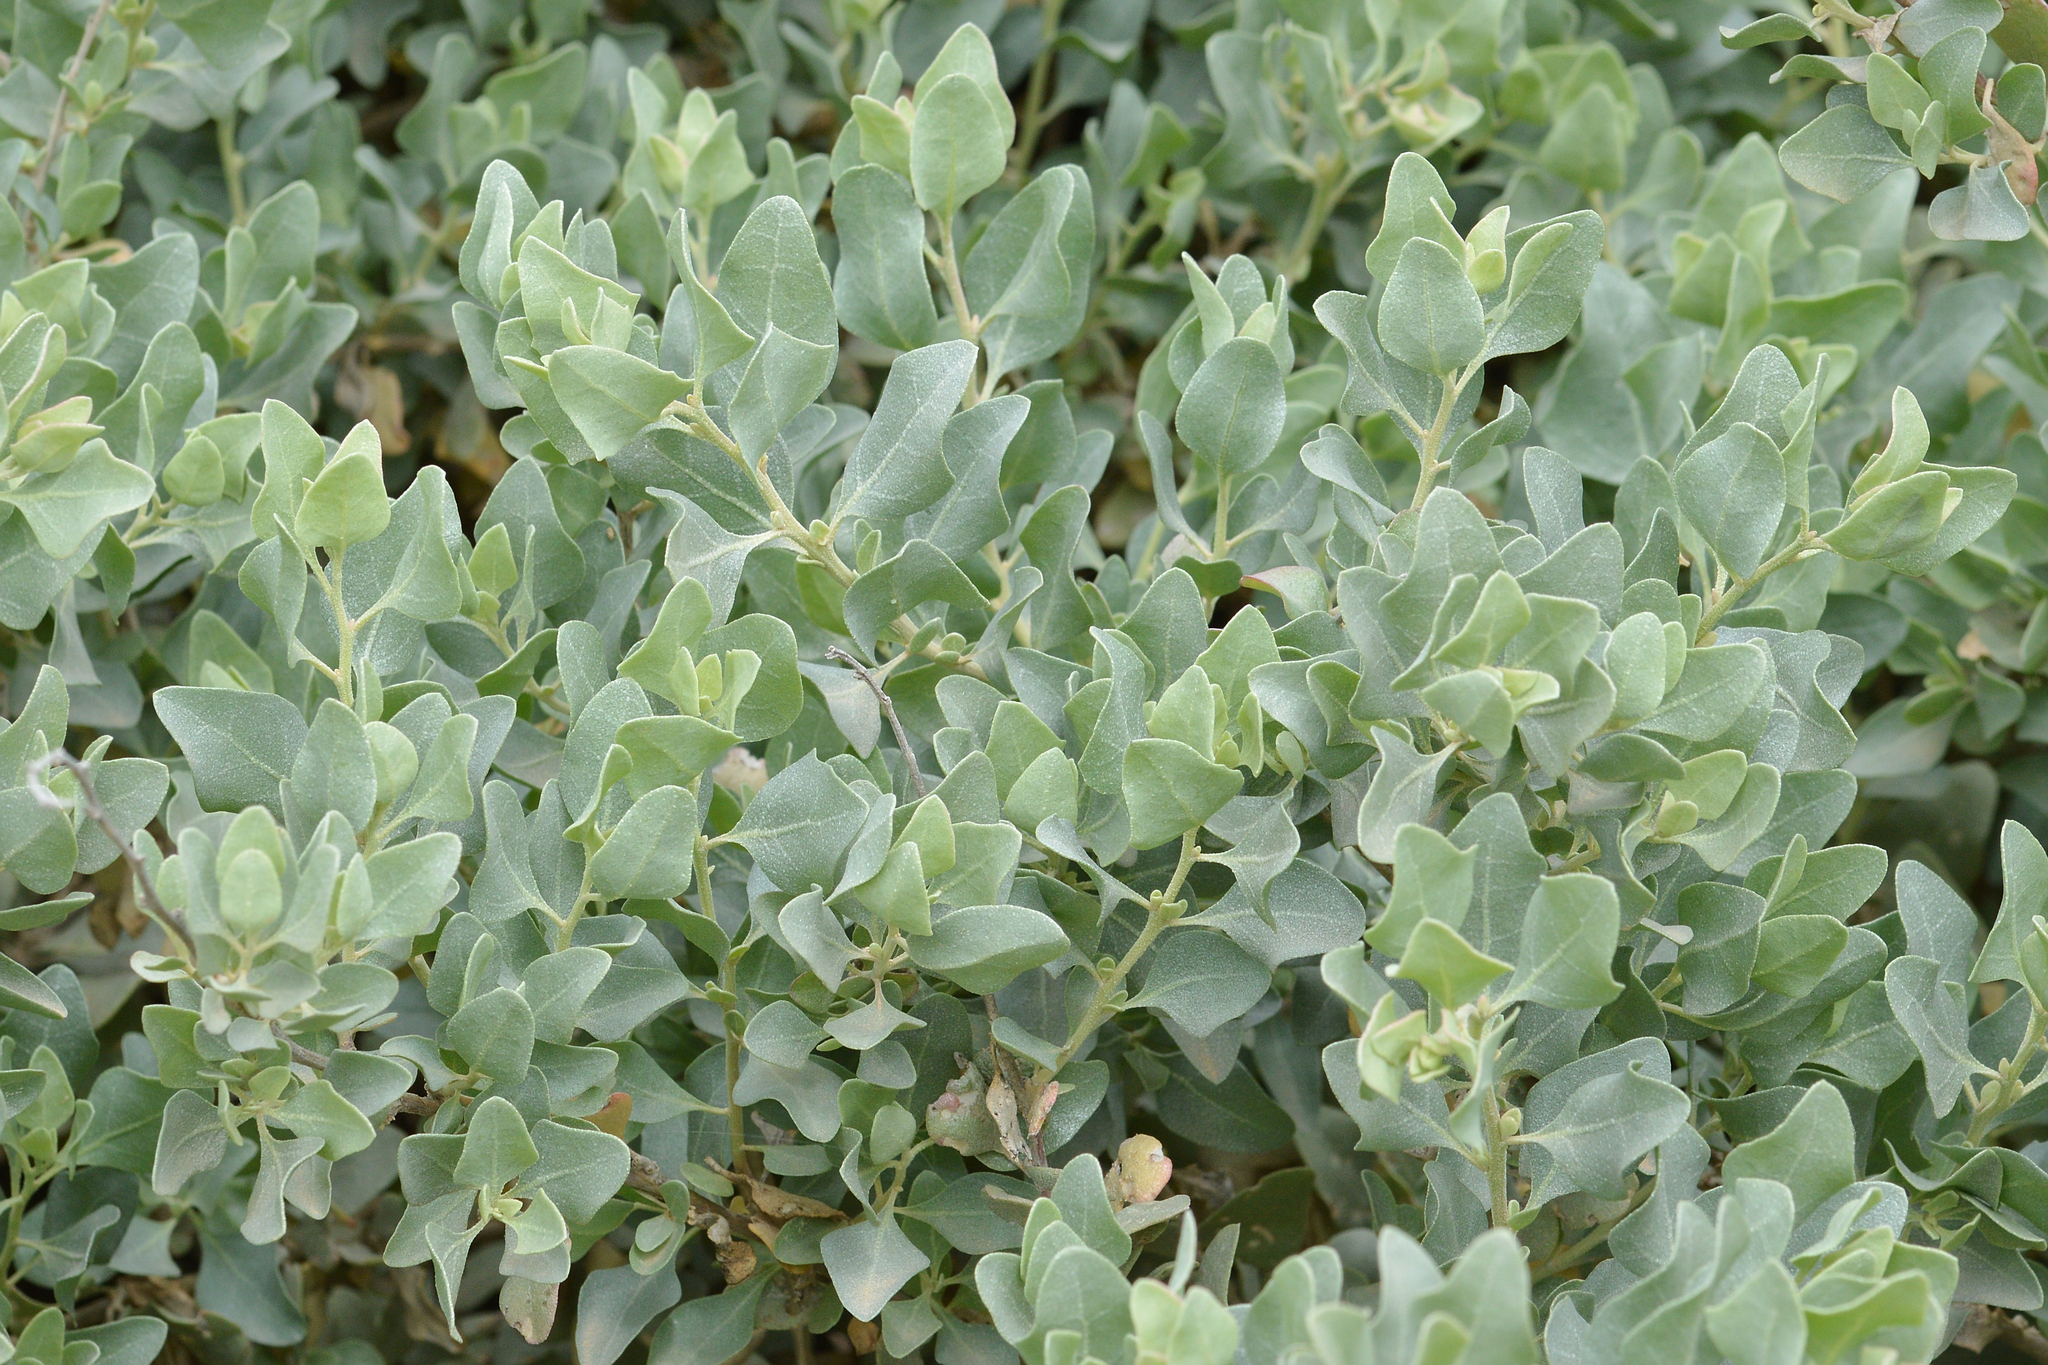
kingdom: Plantae
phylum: Tracheophyta
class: Magnoliopsida
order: Caryophyllales
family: Amaranthaceae
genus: Atriplex
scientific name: Atriplex halimus
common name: Shrubby orache
